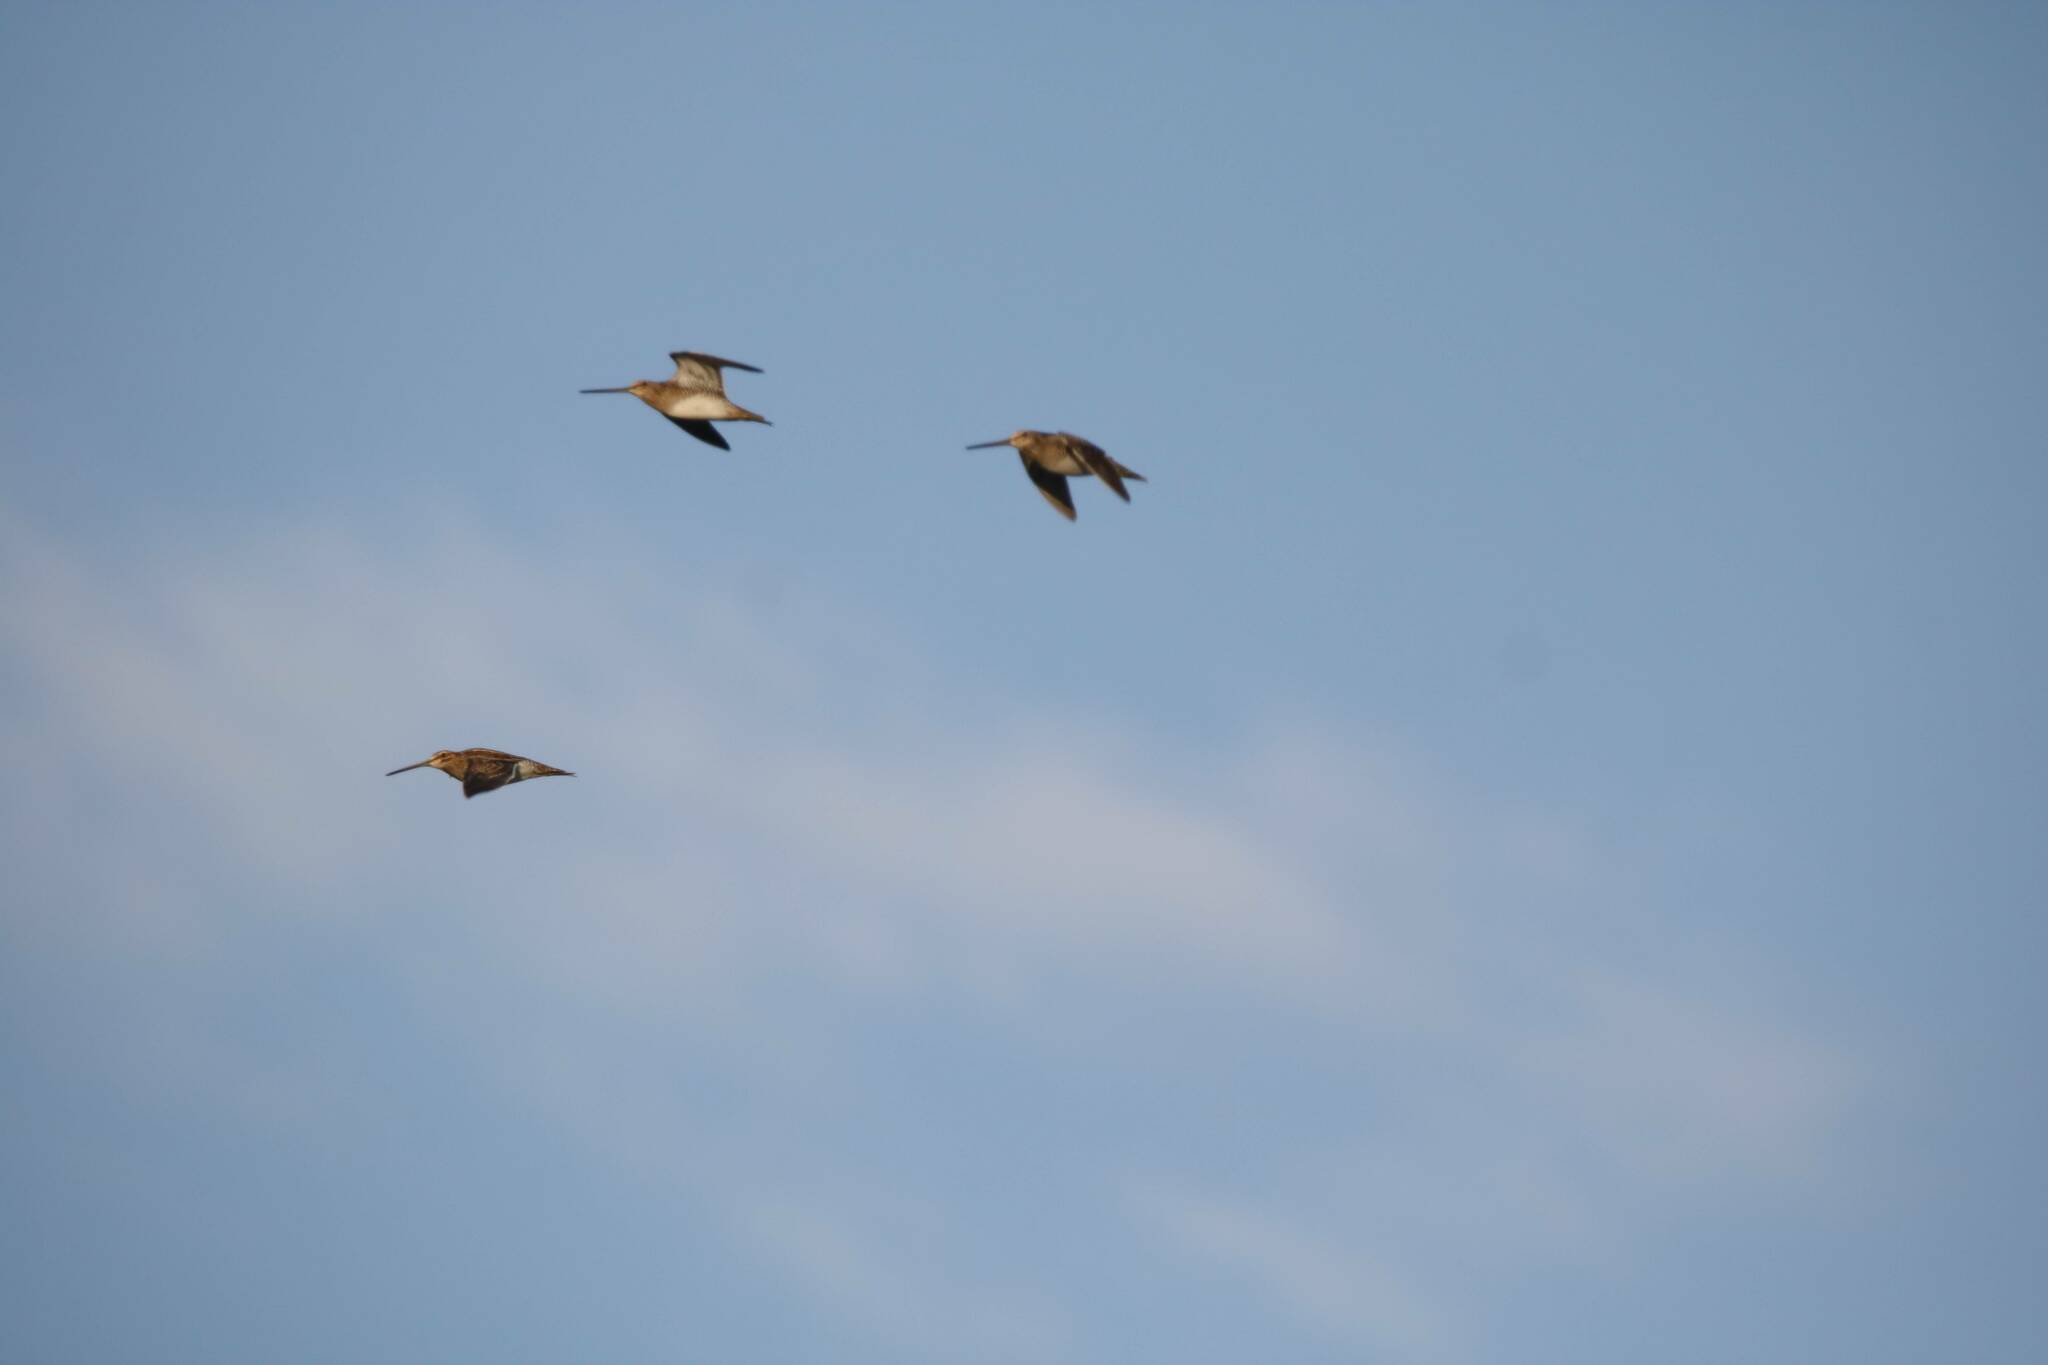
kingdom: Animalia
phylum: Chordata
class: Aves
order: Charadriiformes
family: Scolopacidae
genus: Gallinago
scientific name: Gallinago gallinago
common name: Common snipe
